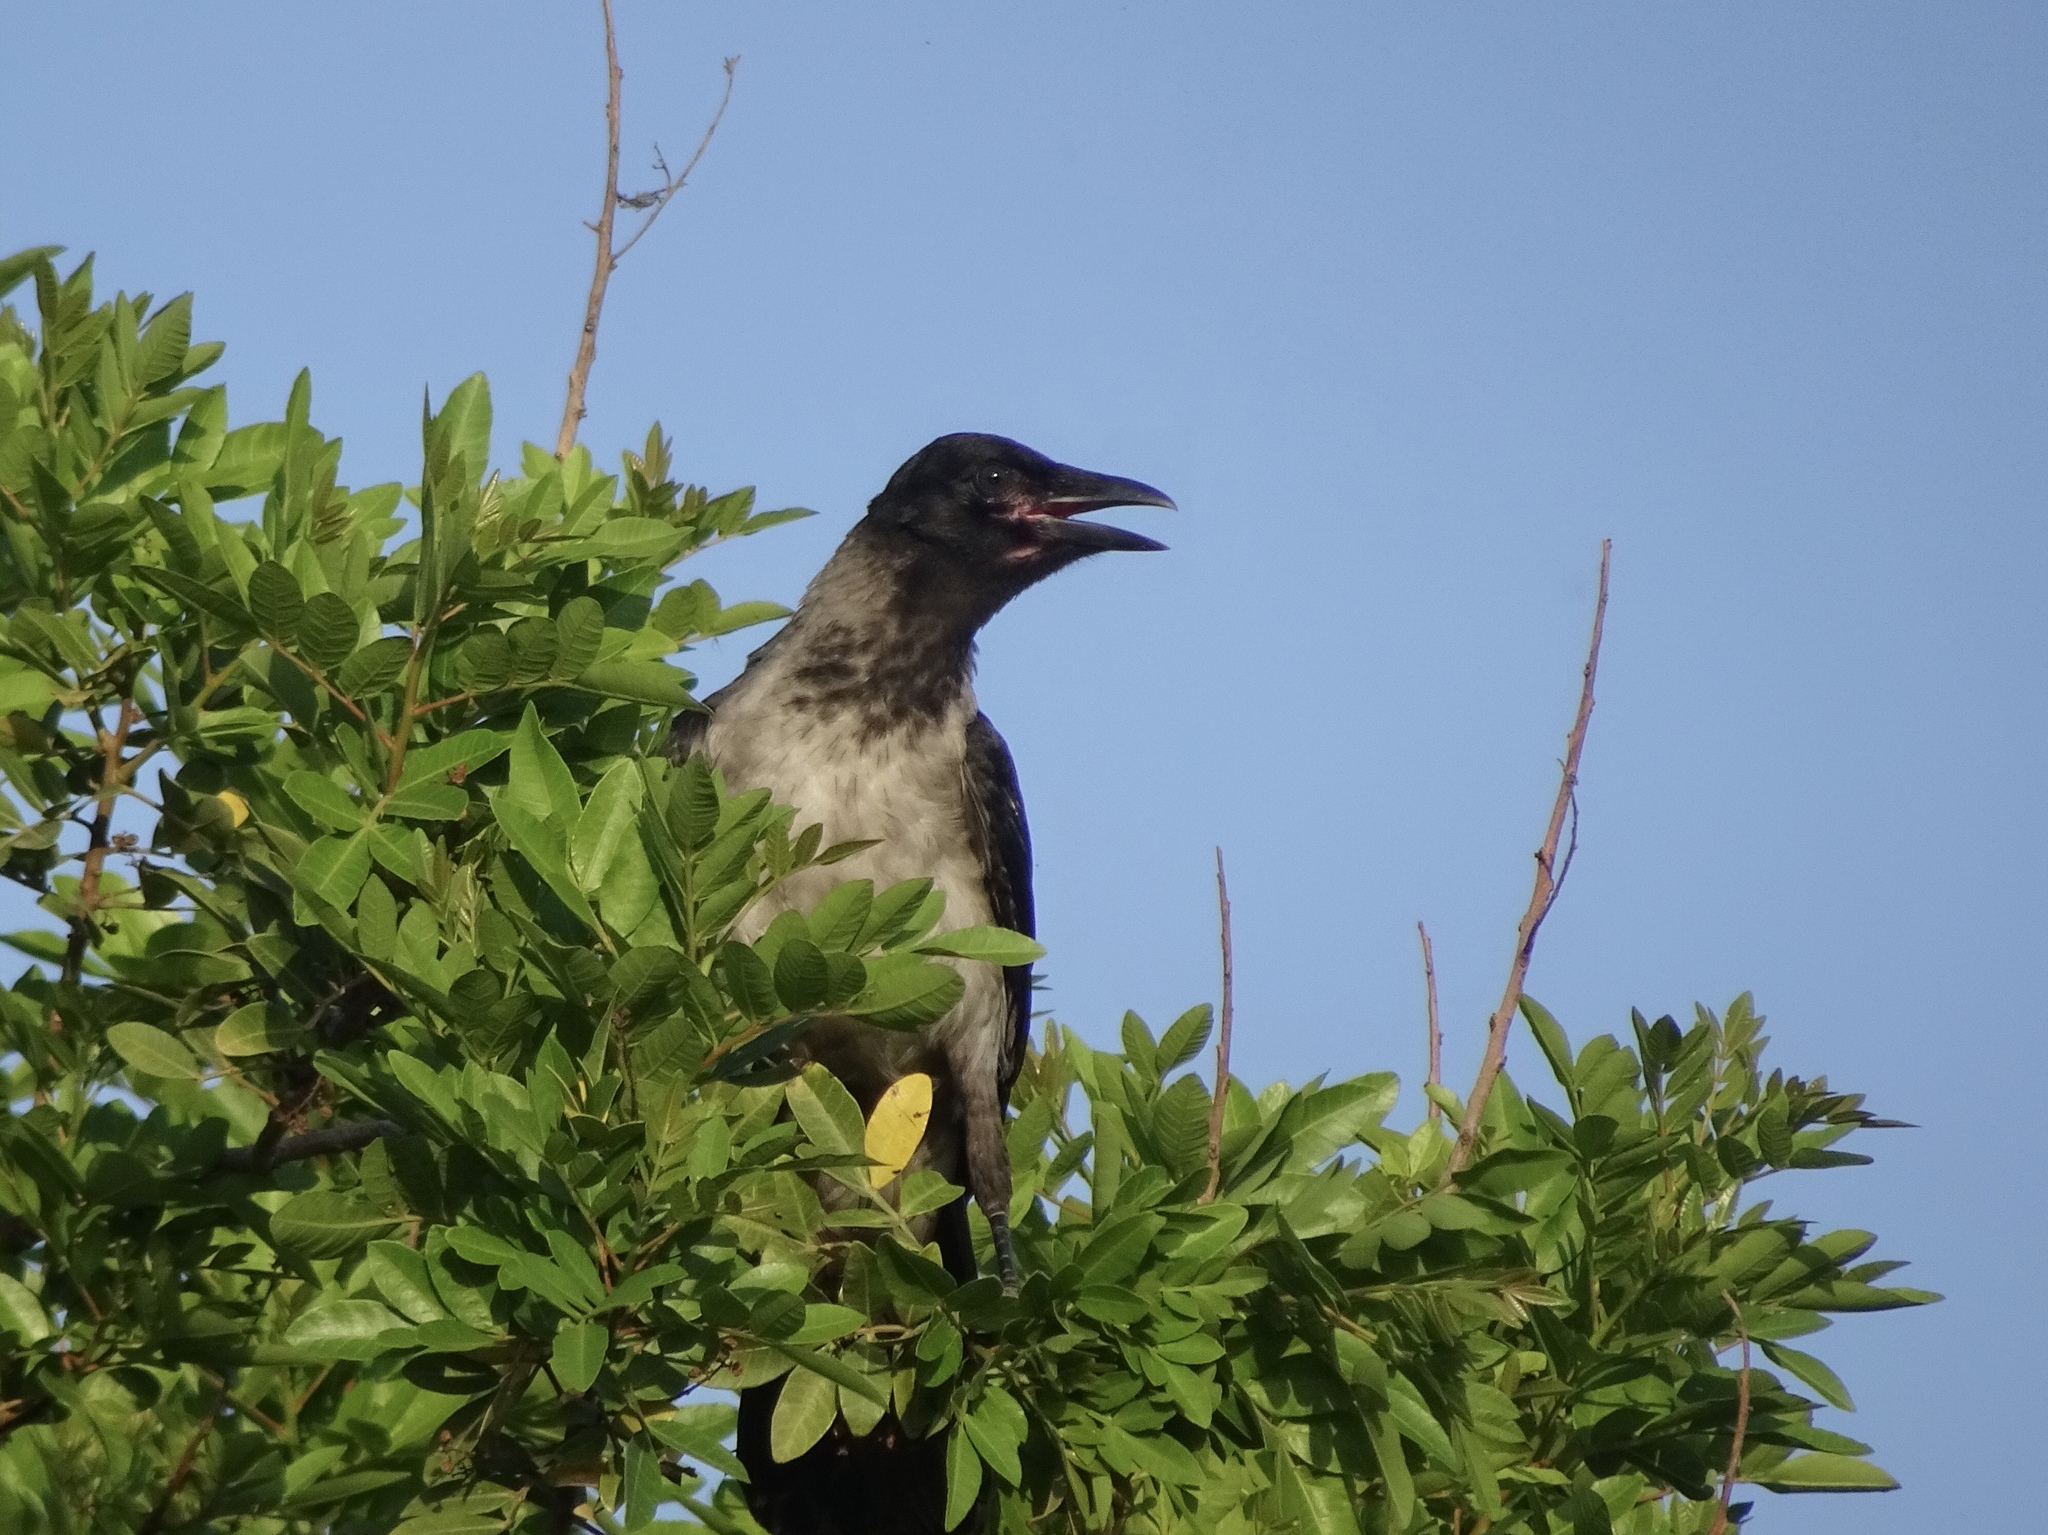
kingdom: Animalia
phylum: Chordata
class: Aves
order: Passeriformes
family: Corvidae
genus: Corvus
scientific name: Corvus cornix
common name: Hooded crow
